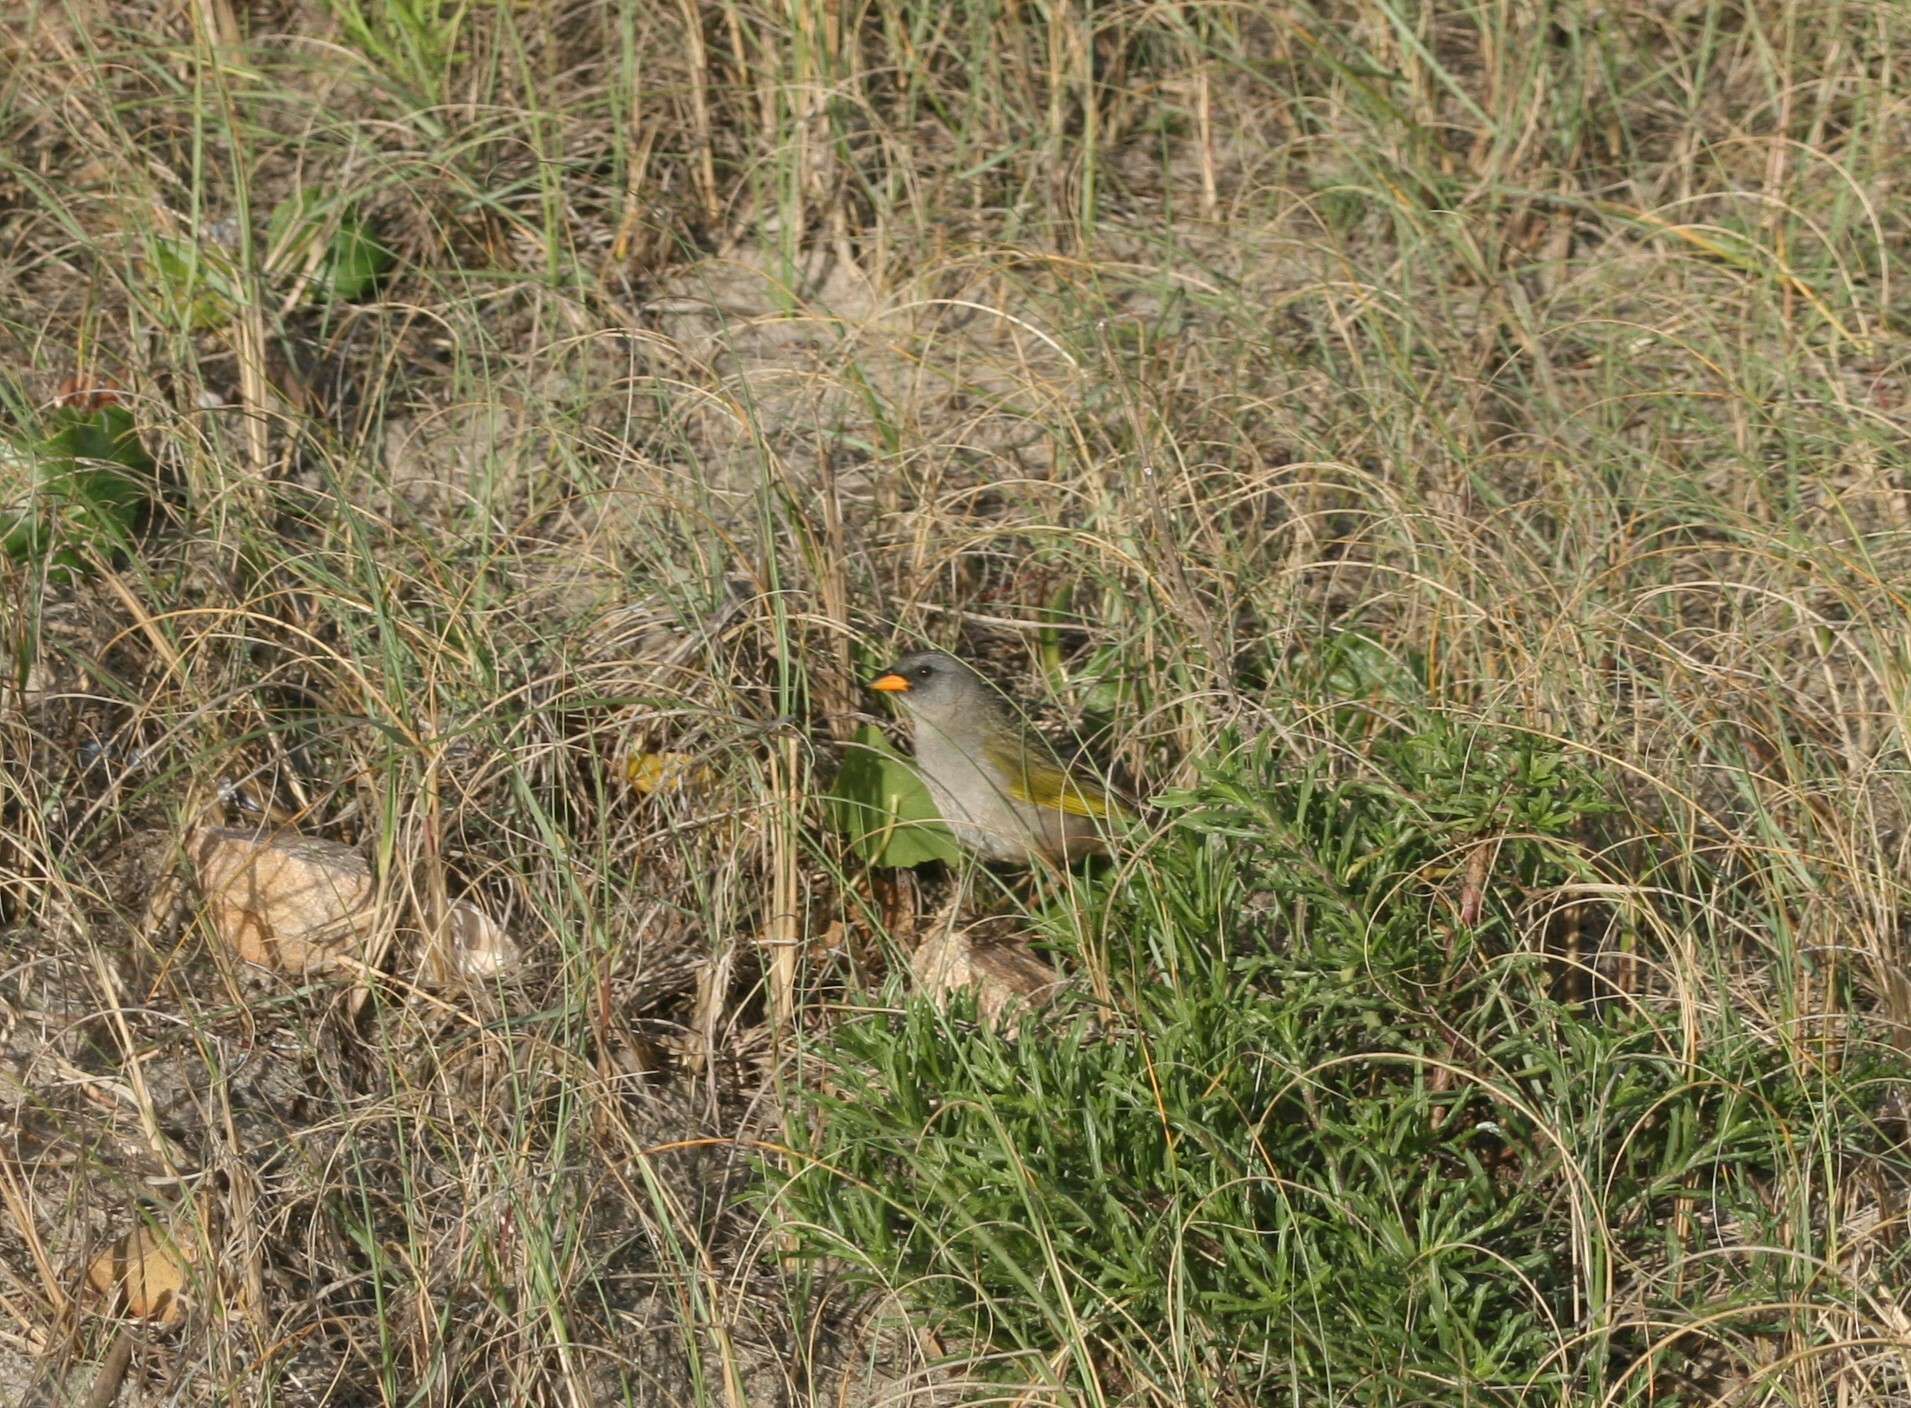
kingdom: Animalia
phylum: Chordata
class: Aves
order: Passeriformes
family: Thraupidae
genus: Embernagra
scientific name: Embernagra platensis
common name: Pampa finch
